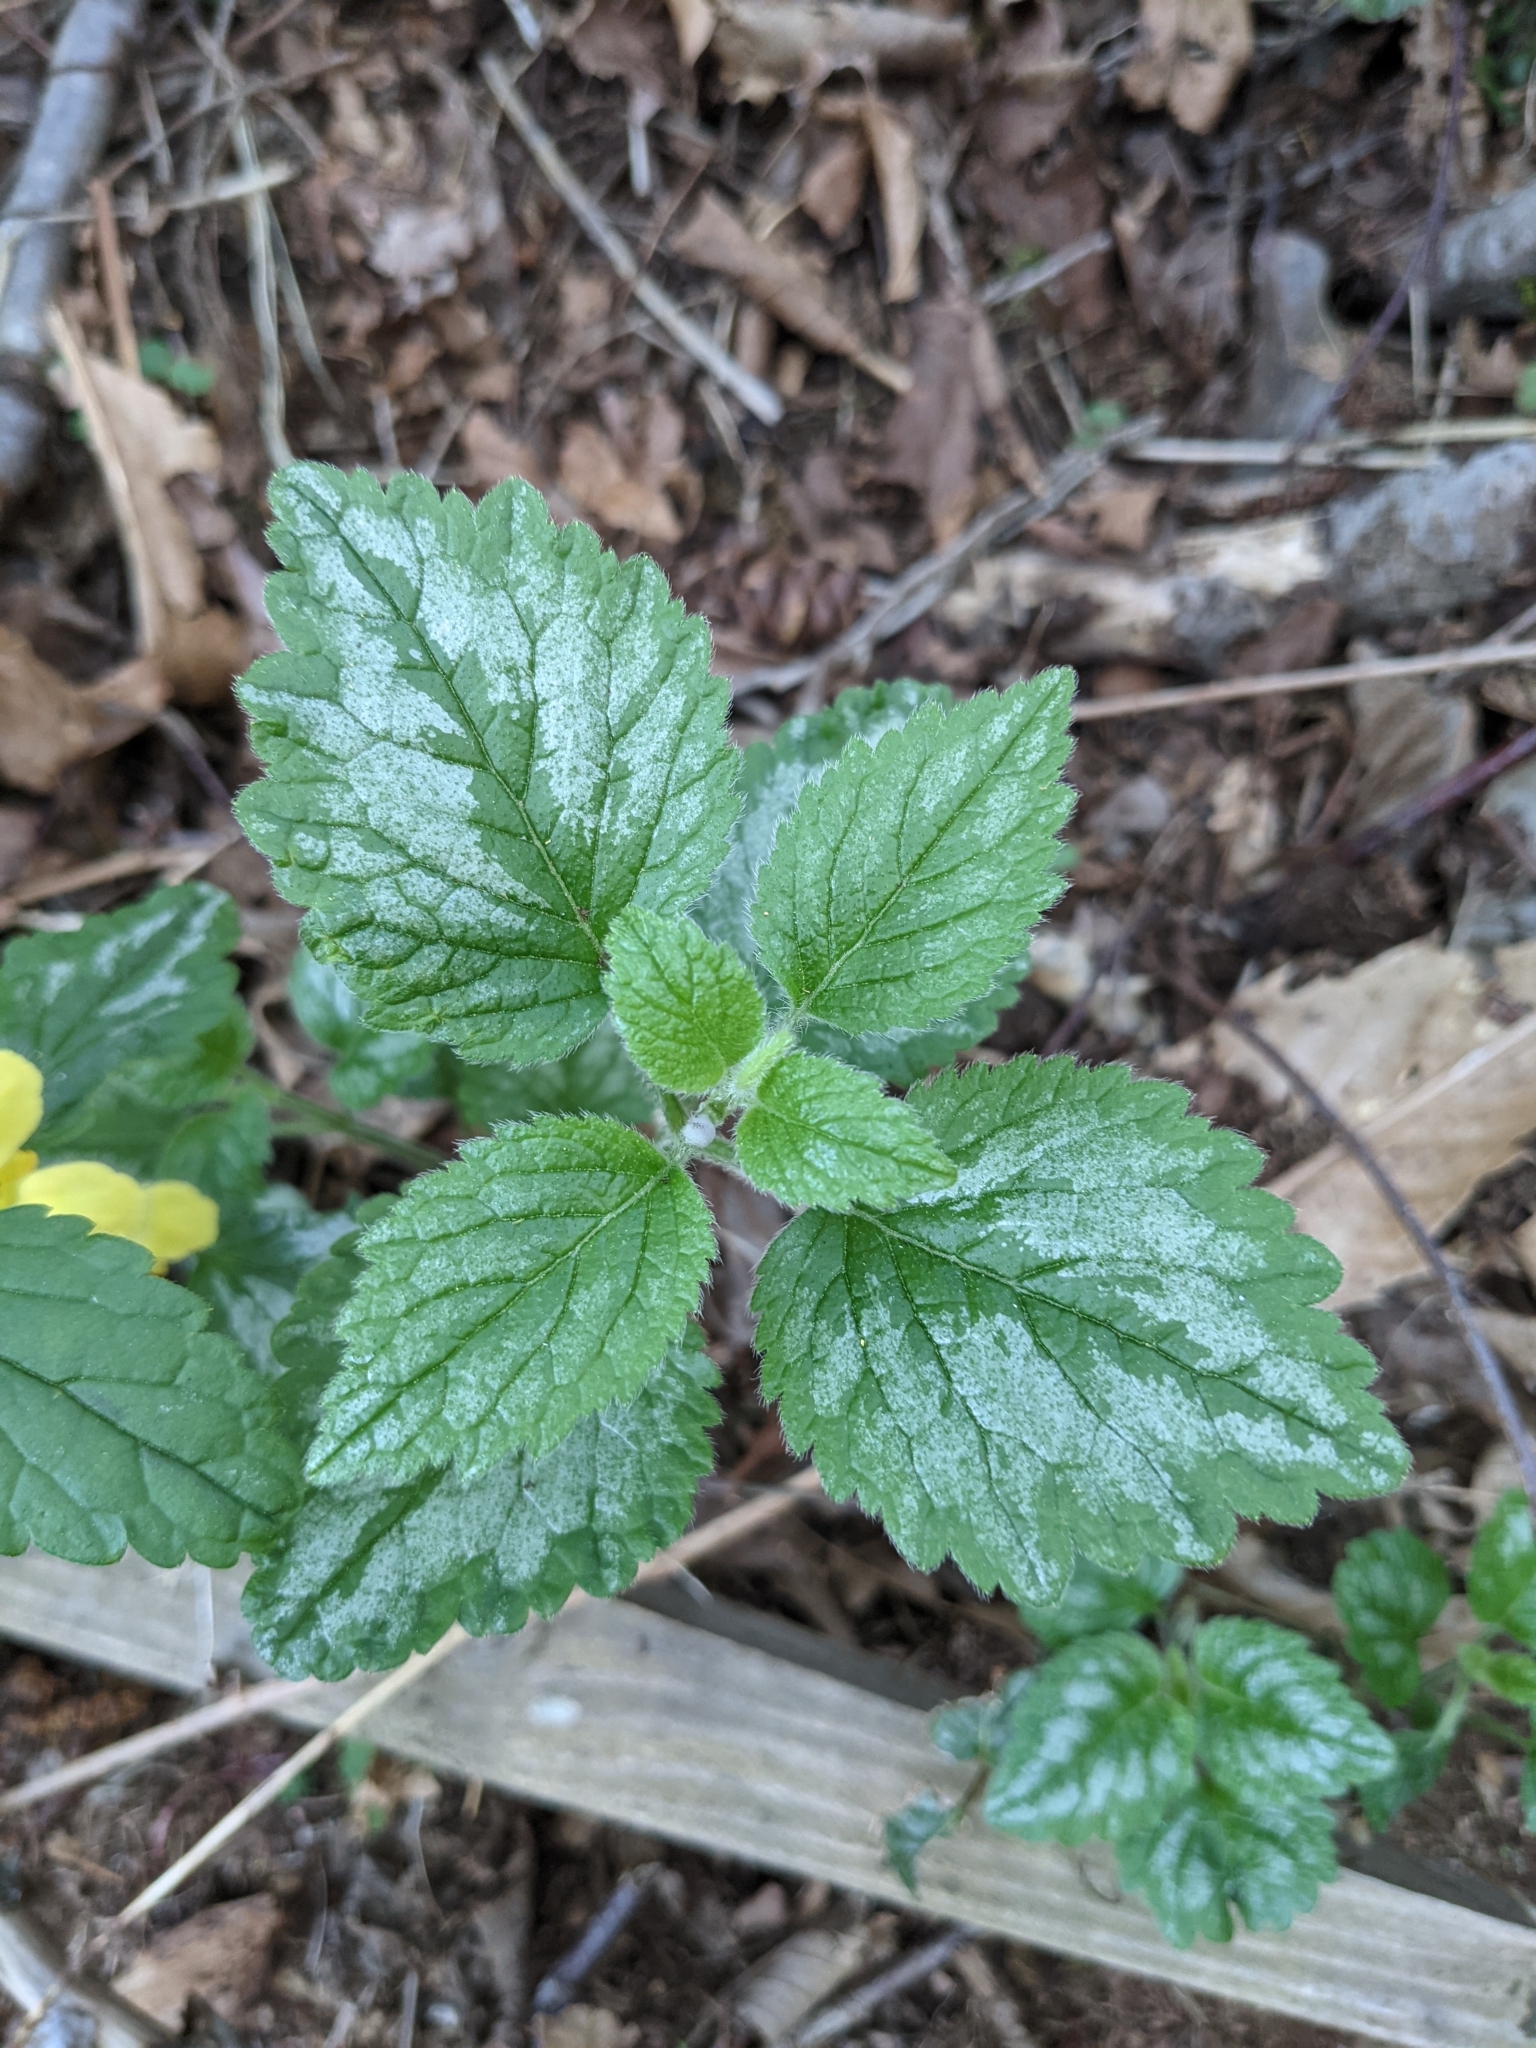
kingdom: Plantae
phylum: Tracheophyta
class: Magnoliopsida
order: Lamiales
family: Lamiaceae
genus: Lamium
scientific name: Lamium galeobdolon
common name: Yellow archangel
